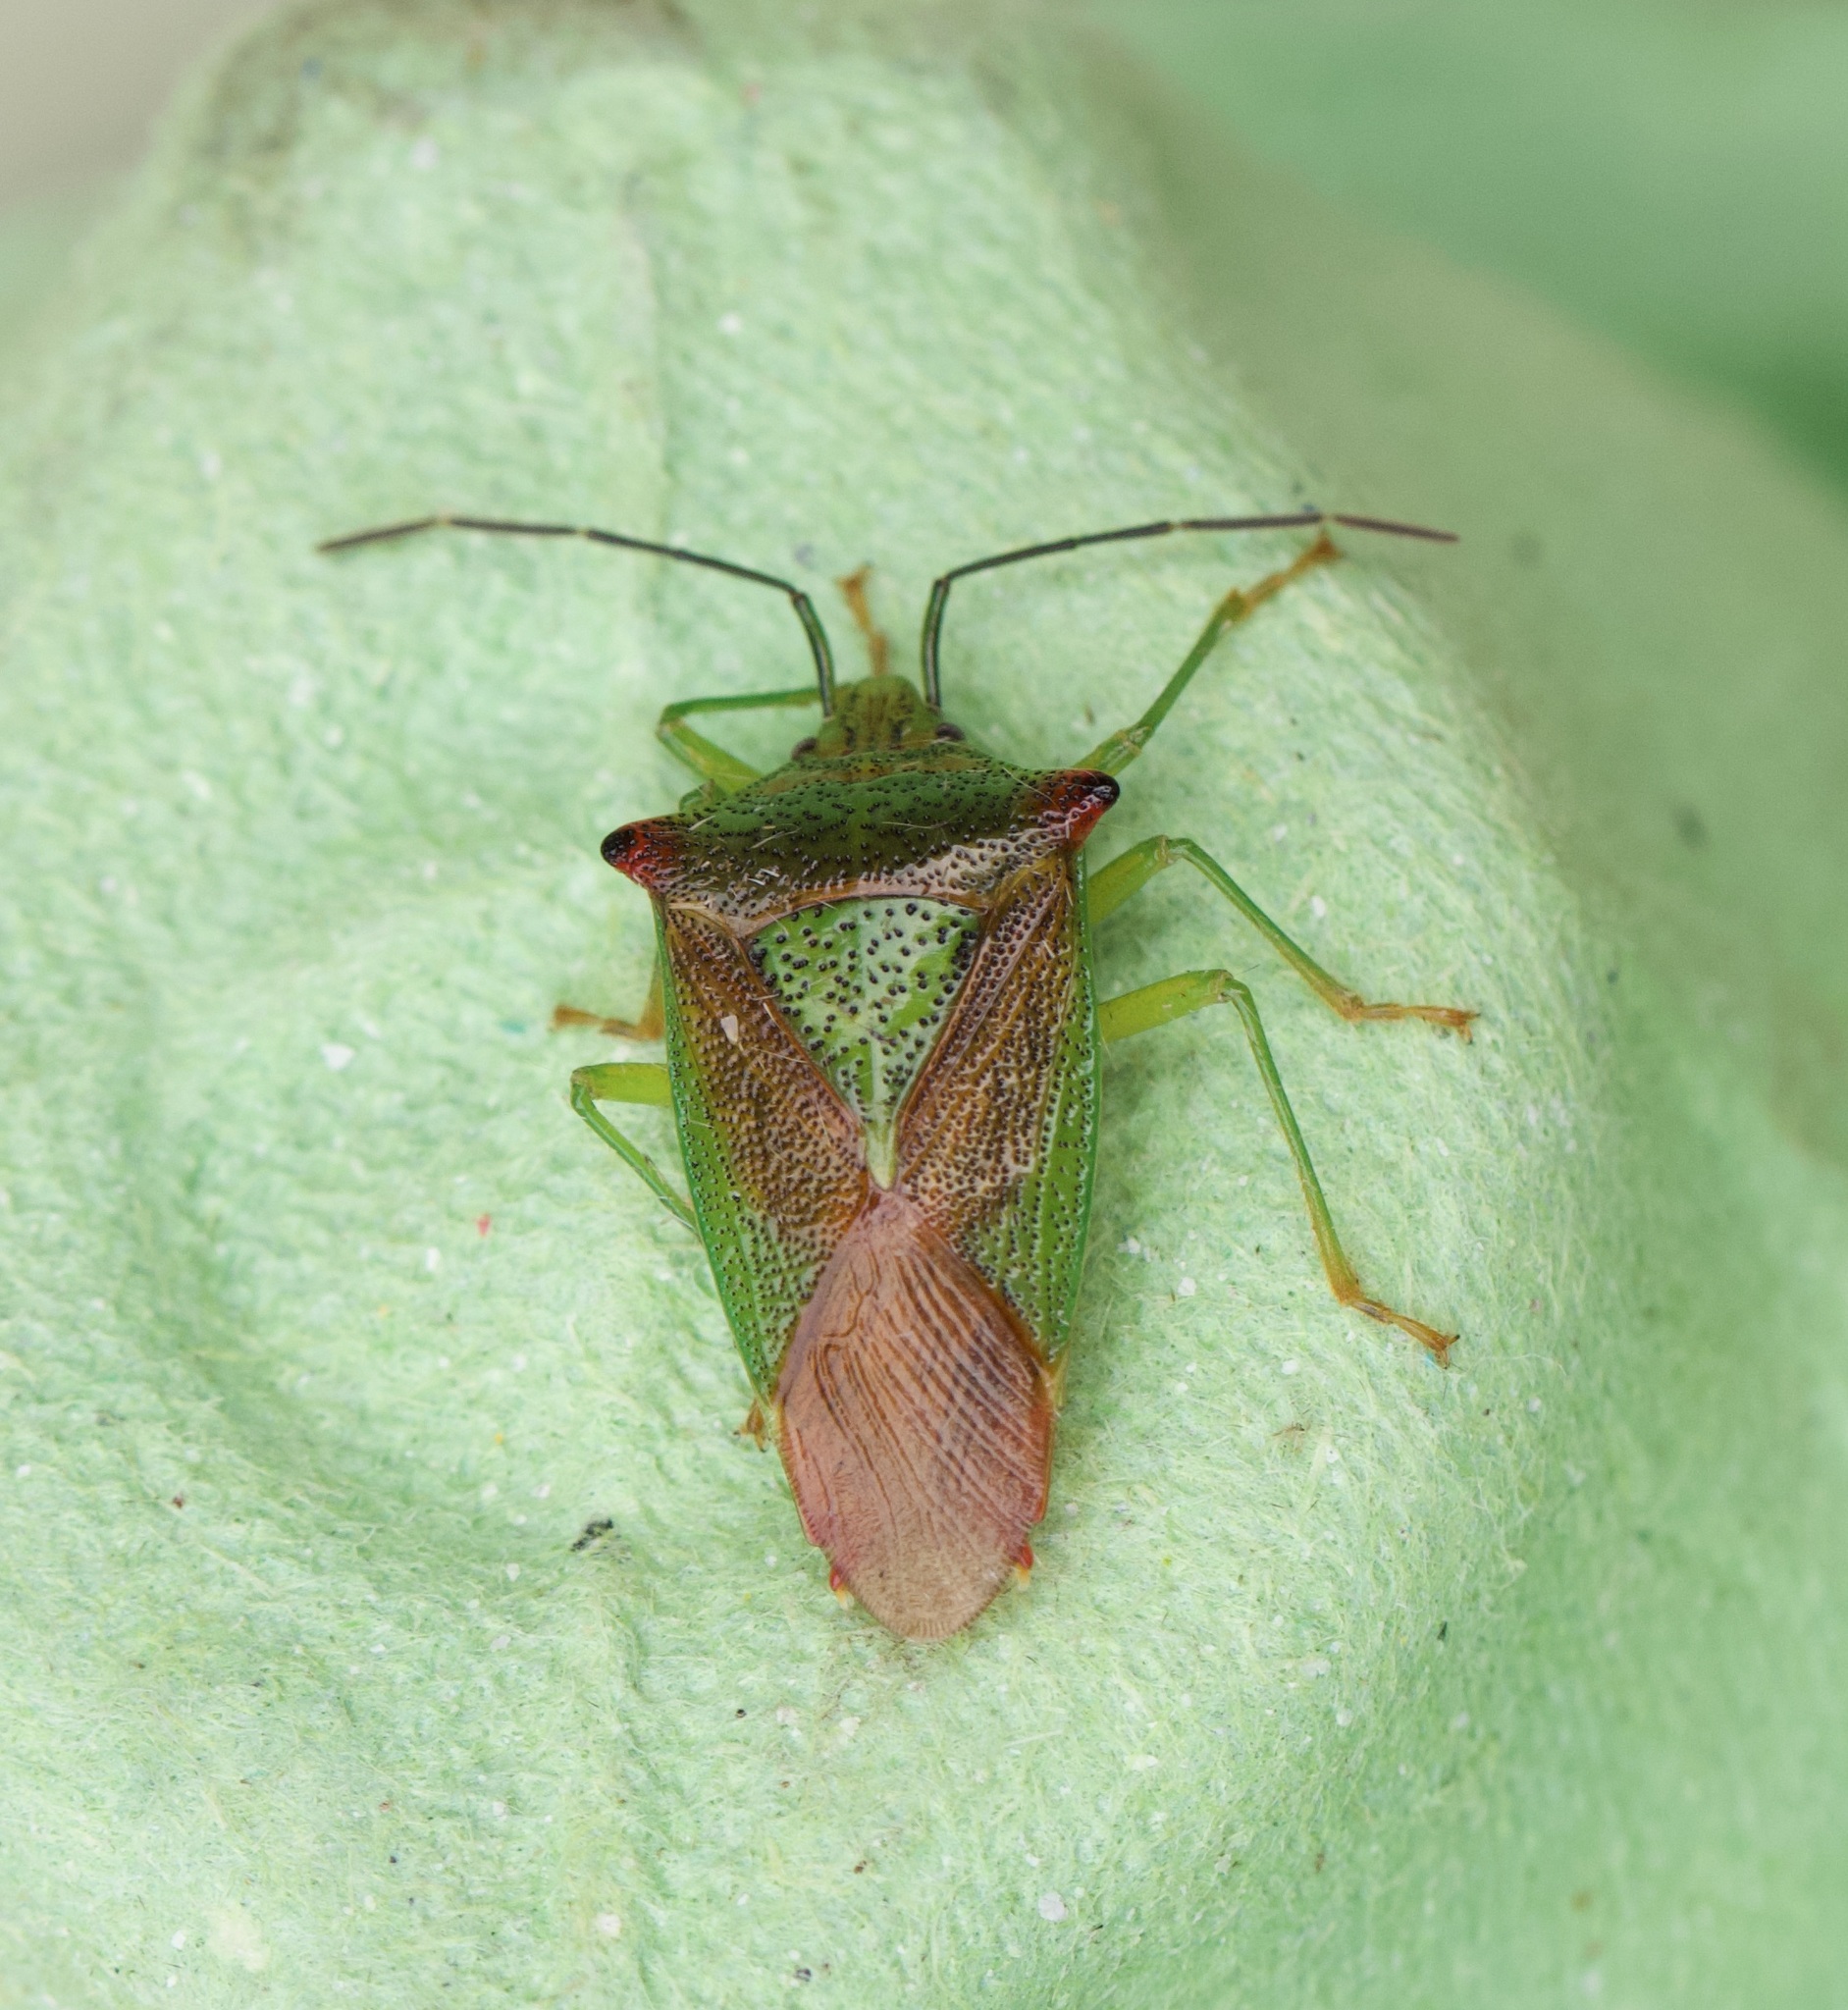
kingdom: Animalia
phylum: Arthropoda
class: Insecta
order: Hemiptera
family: Acanthosomatidae
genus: Acanthosoma
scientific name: Acanthosoma haemorrhoidale
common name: Hawthorn shieldbug
